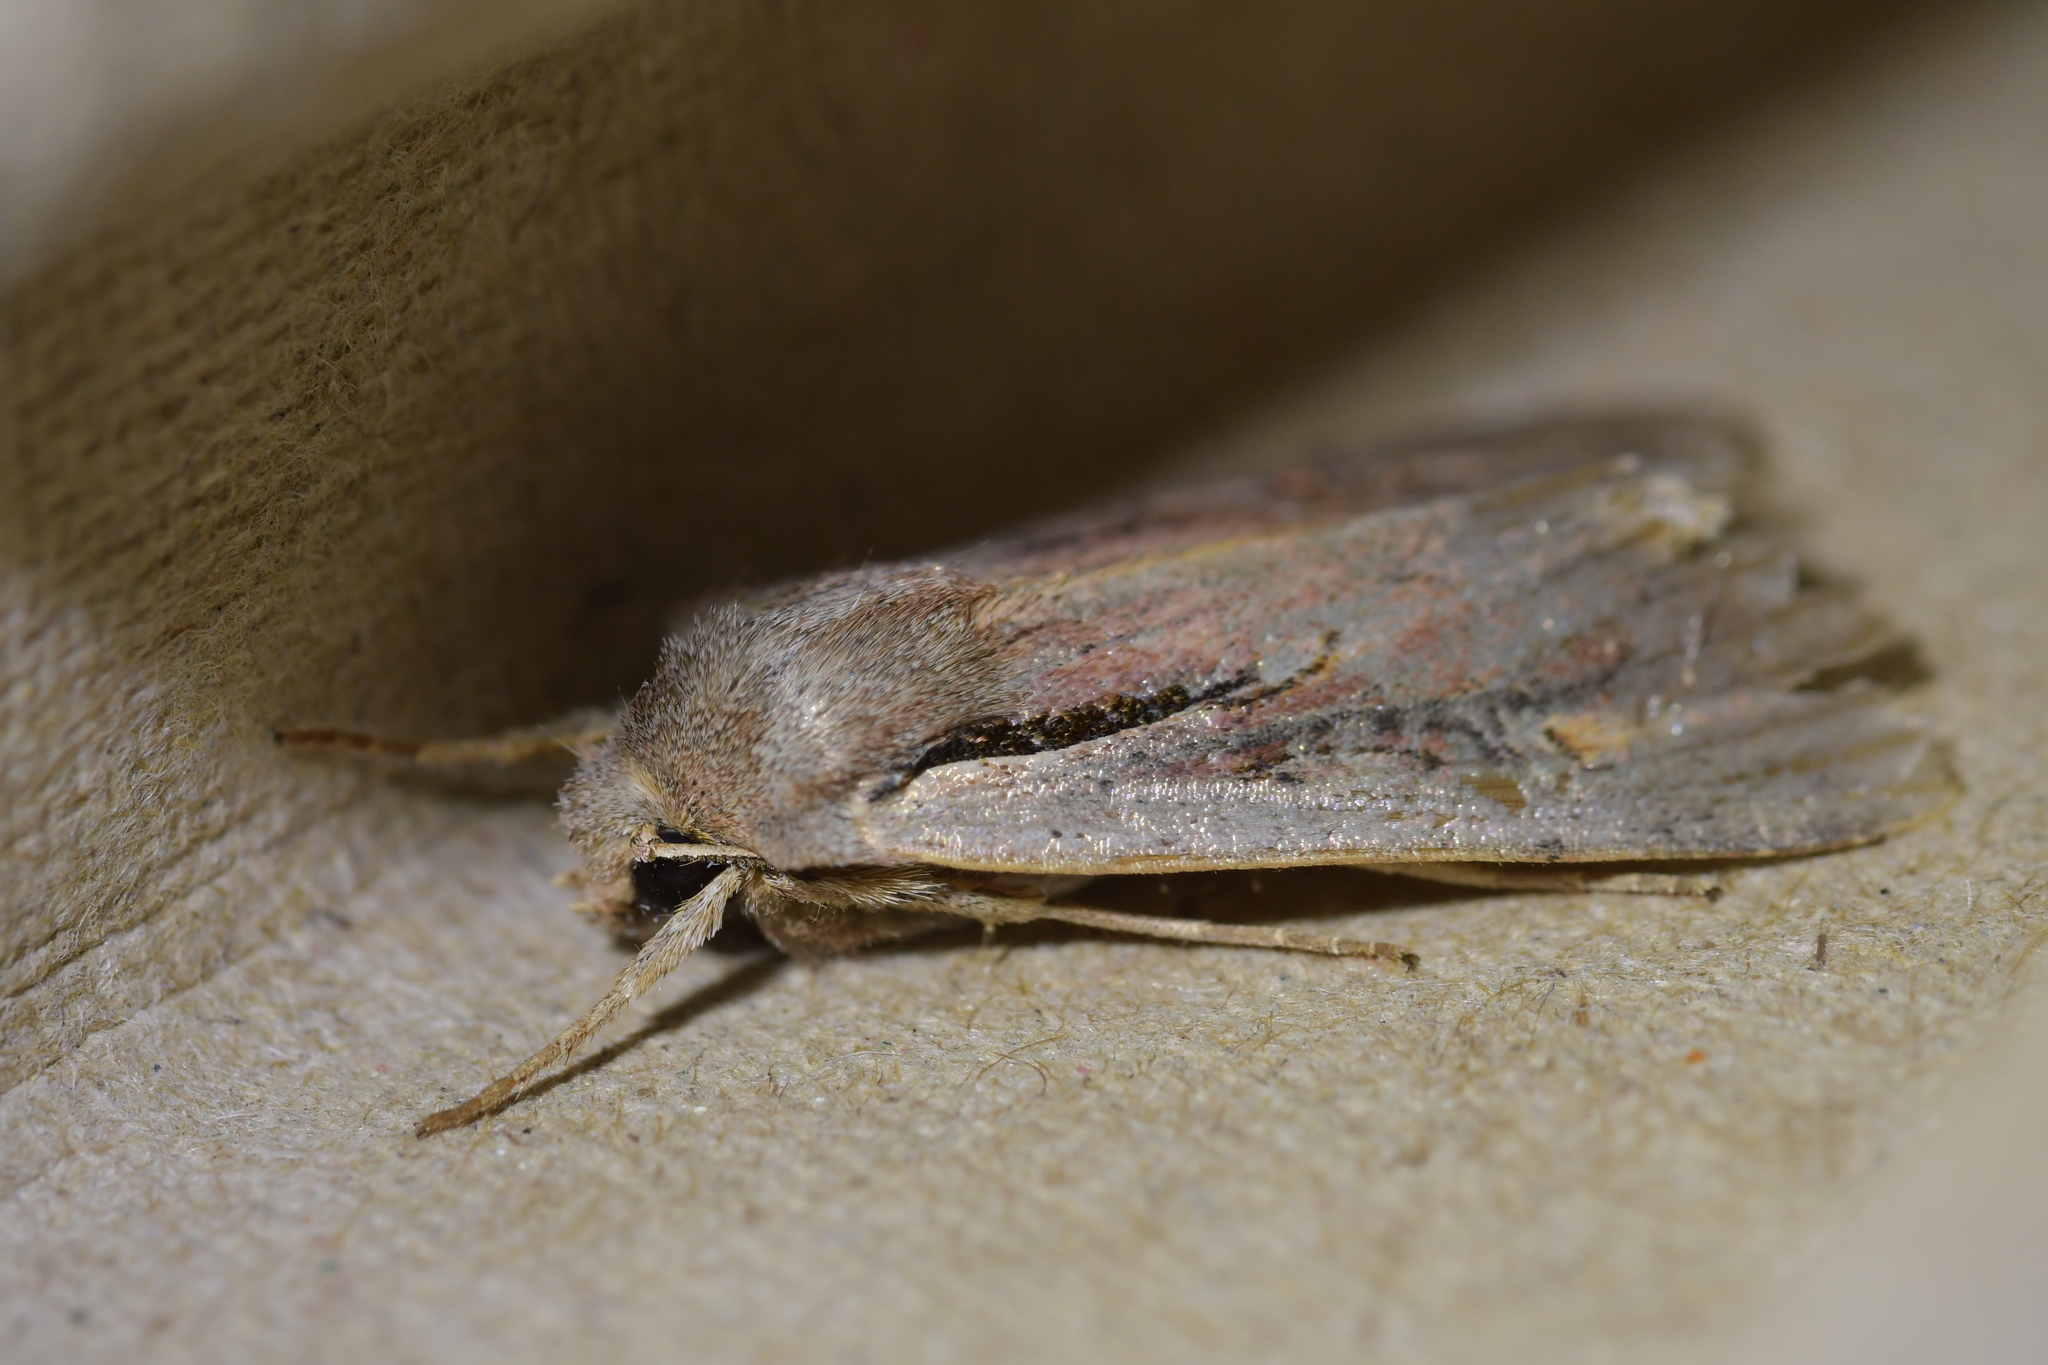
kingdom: Animalia
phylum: Arthropoda
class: Insecta
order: Lepidoptera
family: Noctuidae
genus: Ichneutica
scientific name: Ichneutica atristriga
